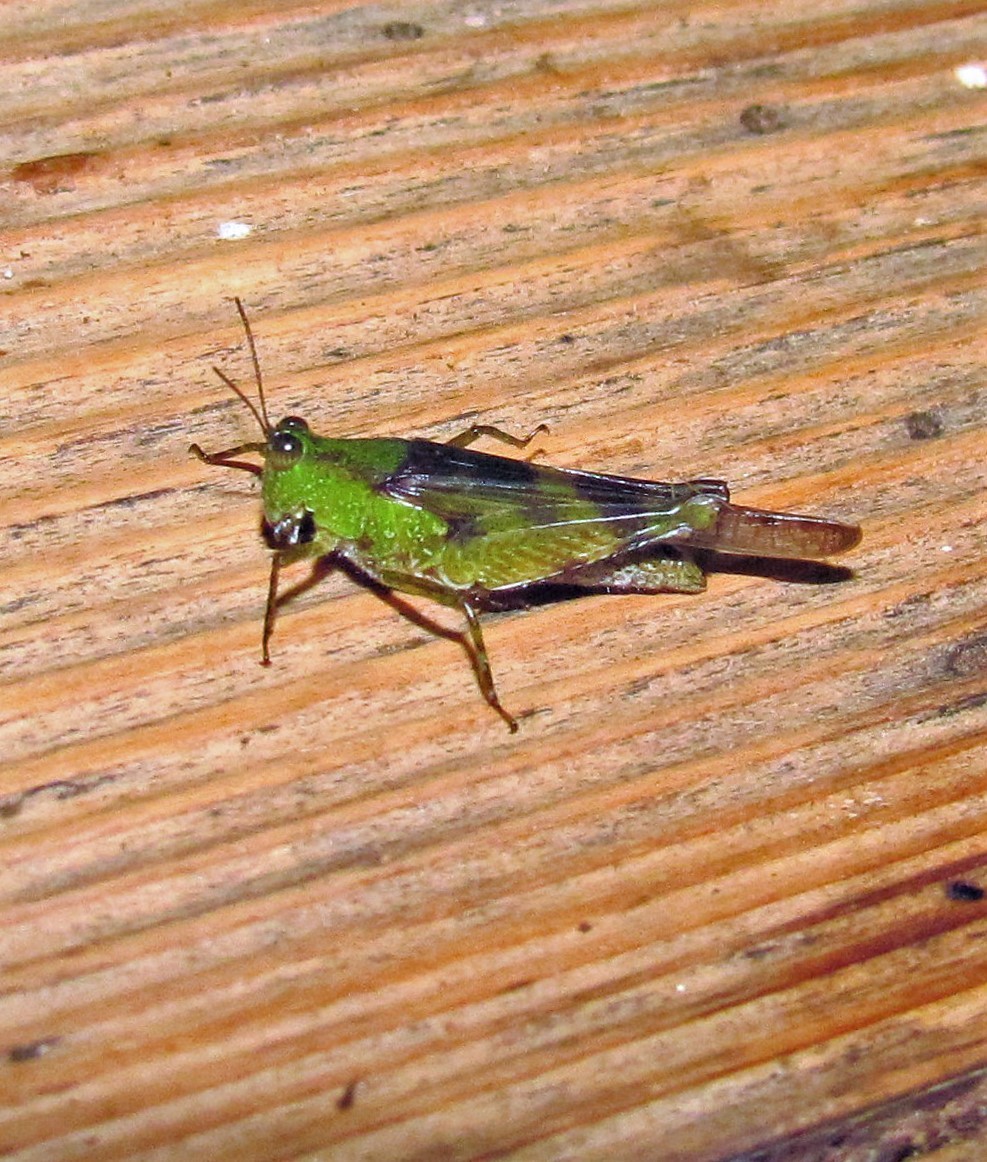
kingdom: Animalia
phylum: Arthropoda
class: Insecta
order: Orthoptera
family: Acrididae
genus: Paulinia
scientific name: Paulinia acuminata
